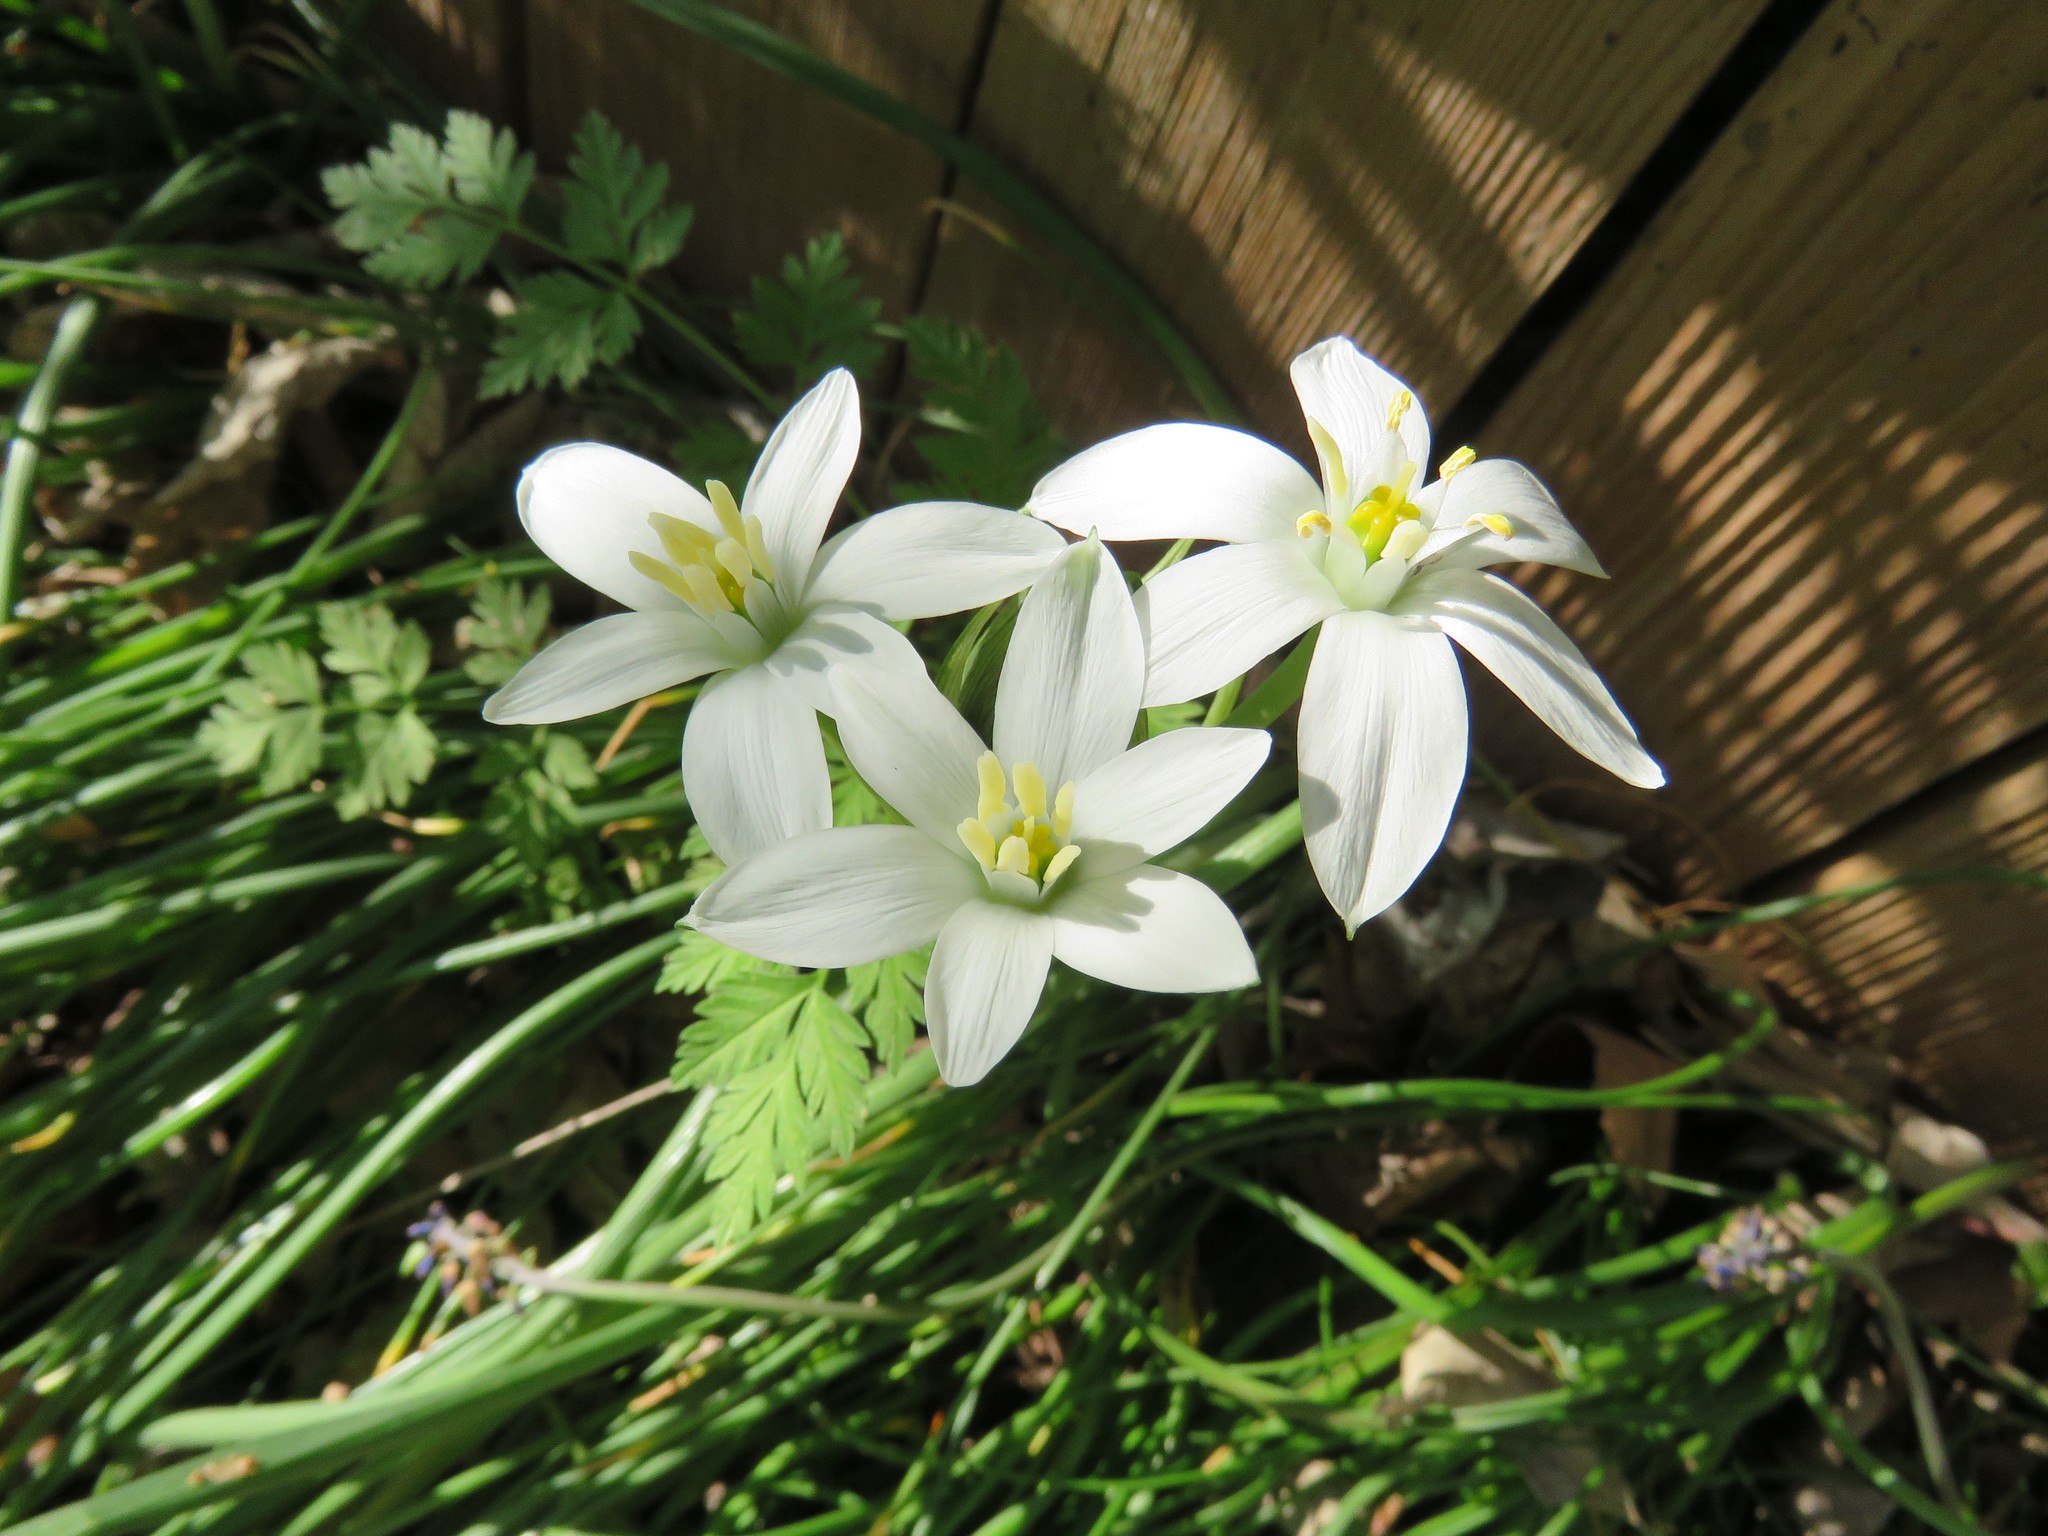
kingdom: Plantae
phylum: Tracheophyta
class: Liliopsida
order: Asparagales
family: Asparagaceae
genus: Ornithogalum
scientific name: Ornithogalum umbellatum
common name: Garden star-of-bethlehem
